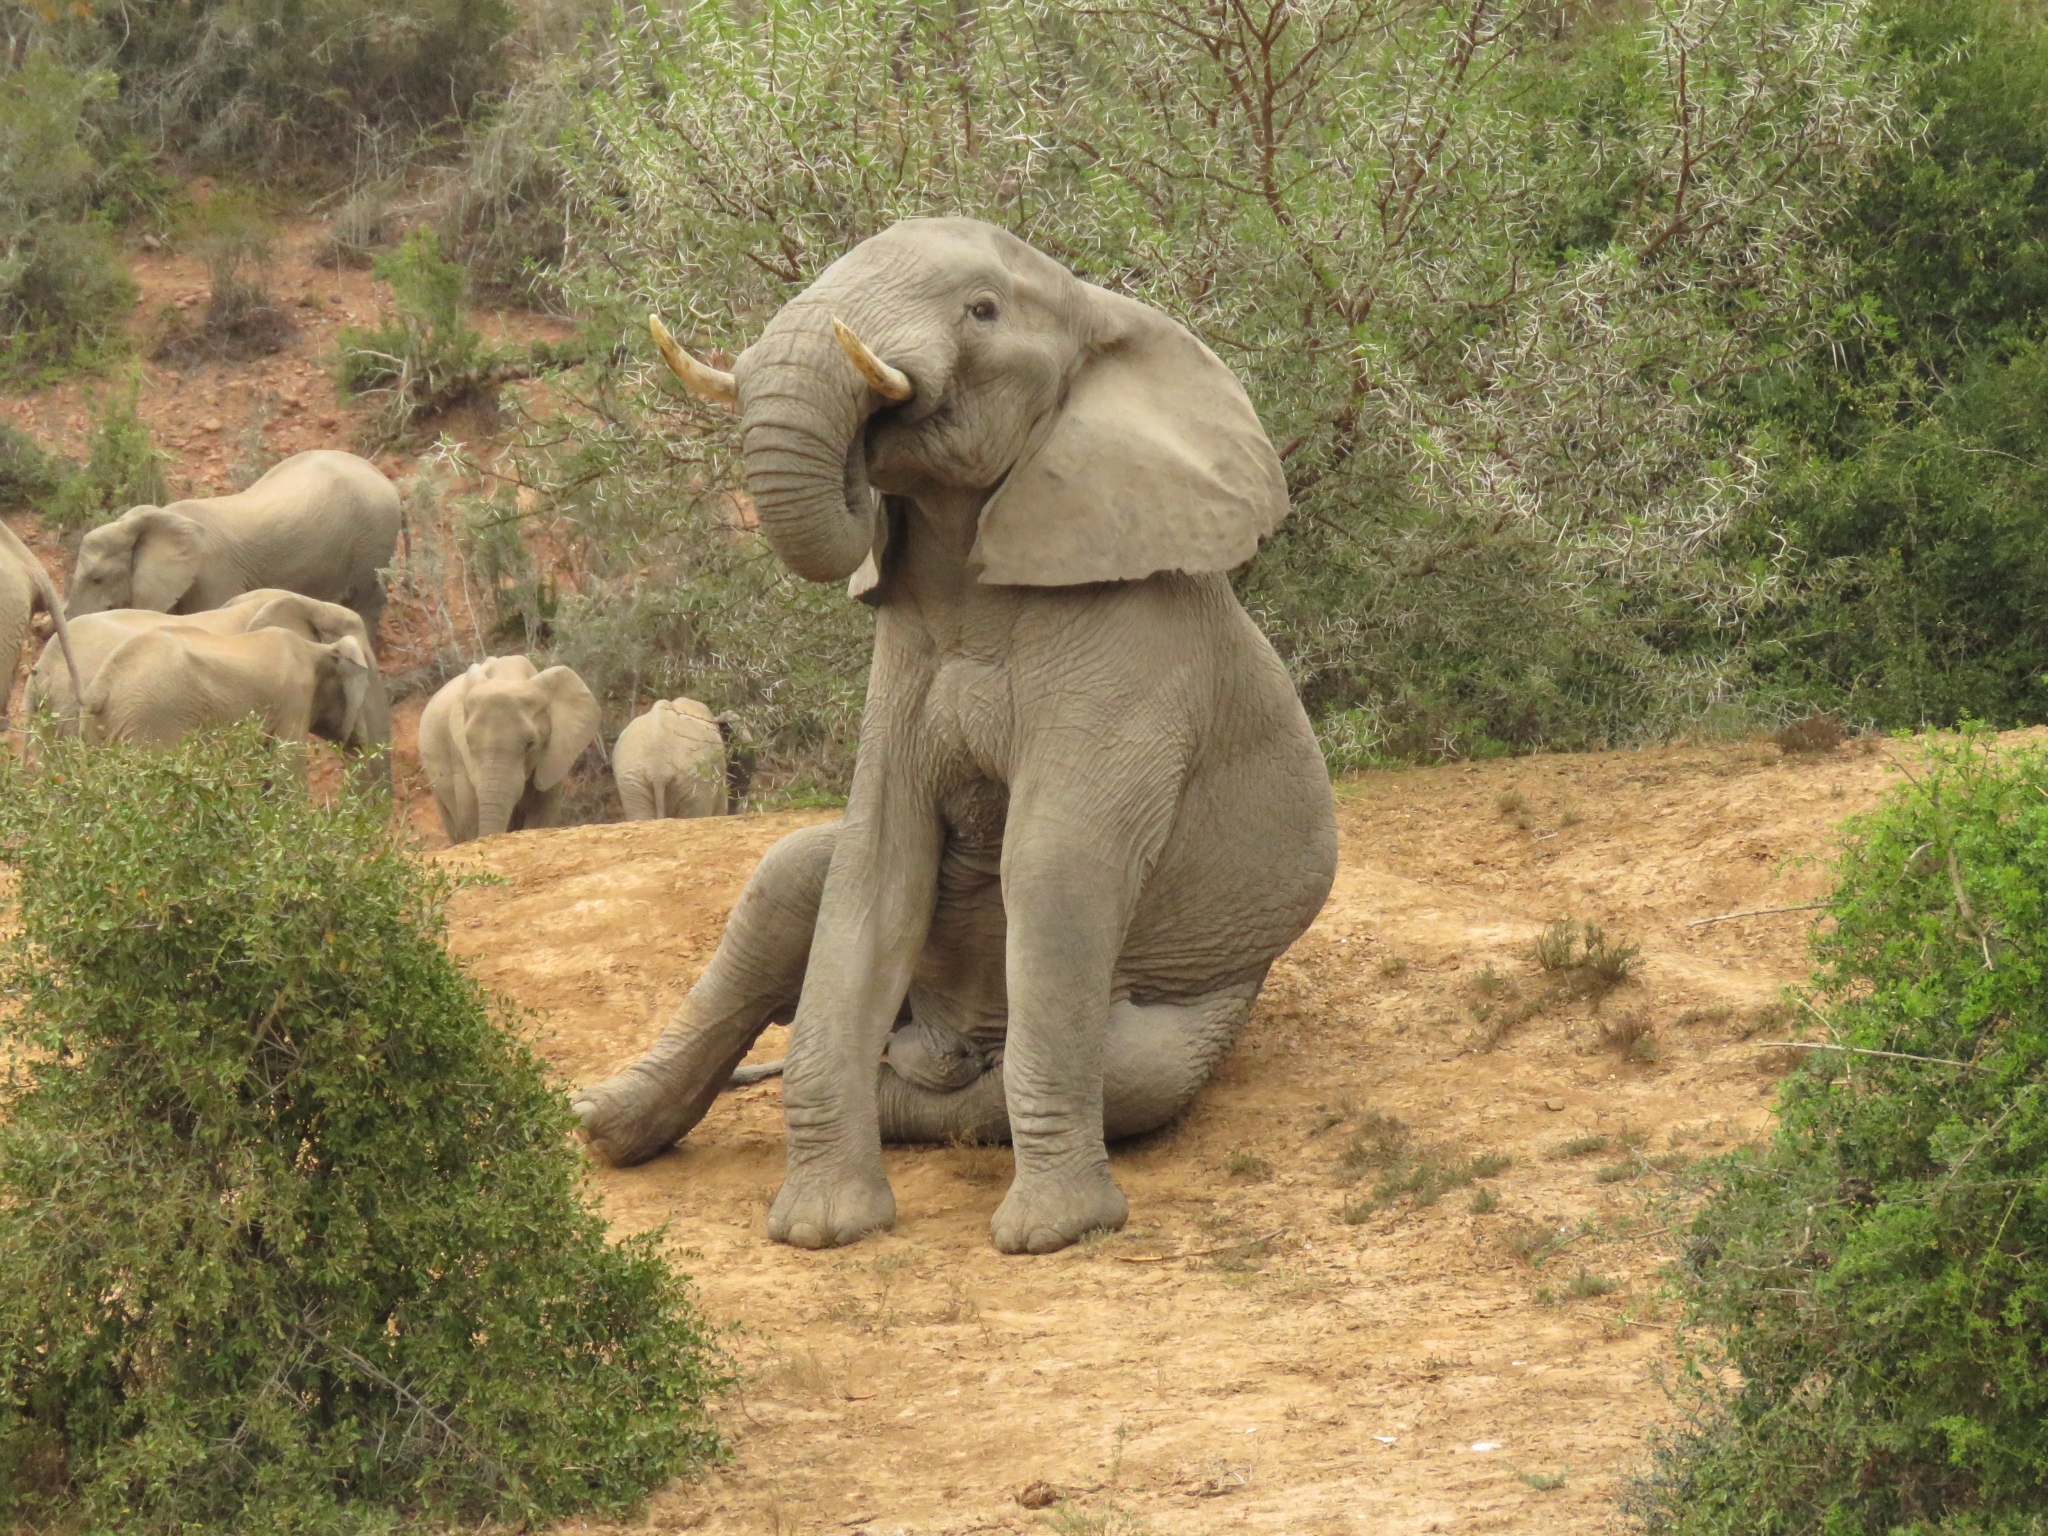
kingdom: Animalia
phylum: Chordata
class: Mammalia
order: Proboscidea
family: Elephantidae
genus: Loxodonta
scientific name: Loxodonta africana
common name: African elephant
